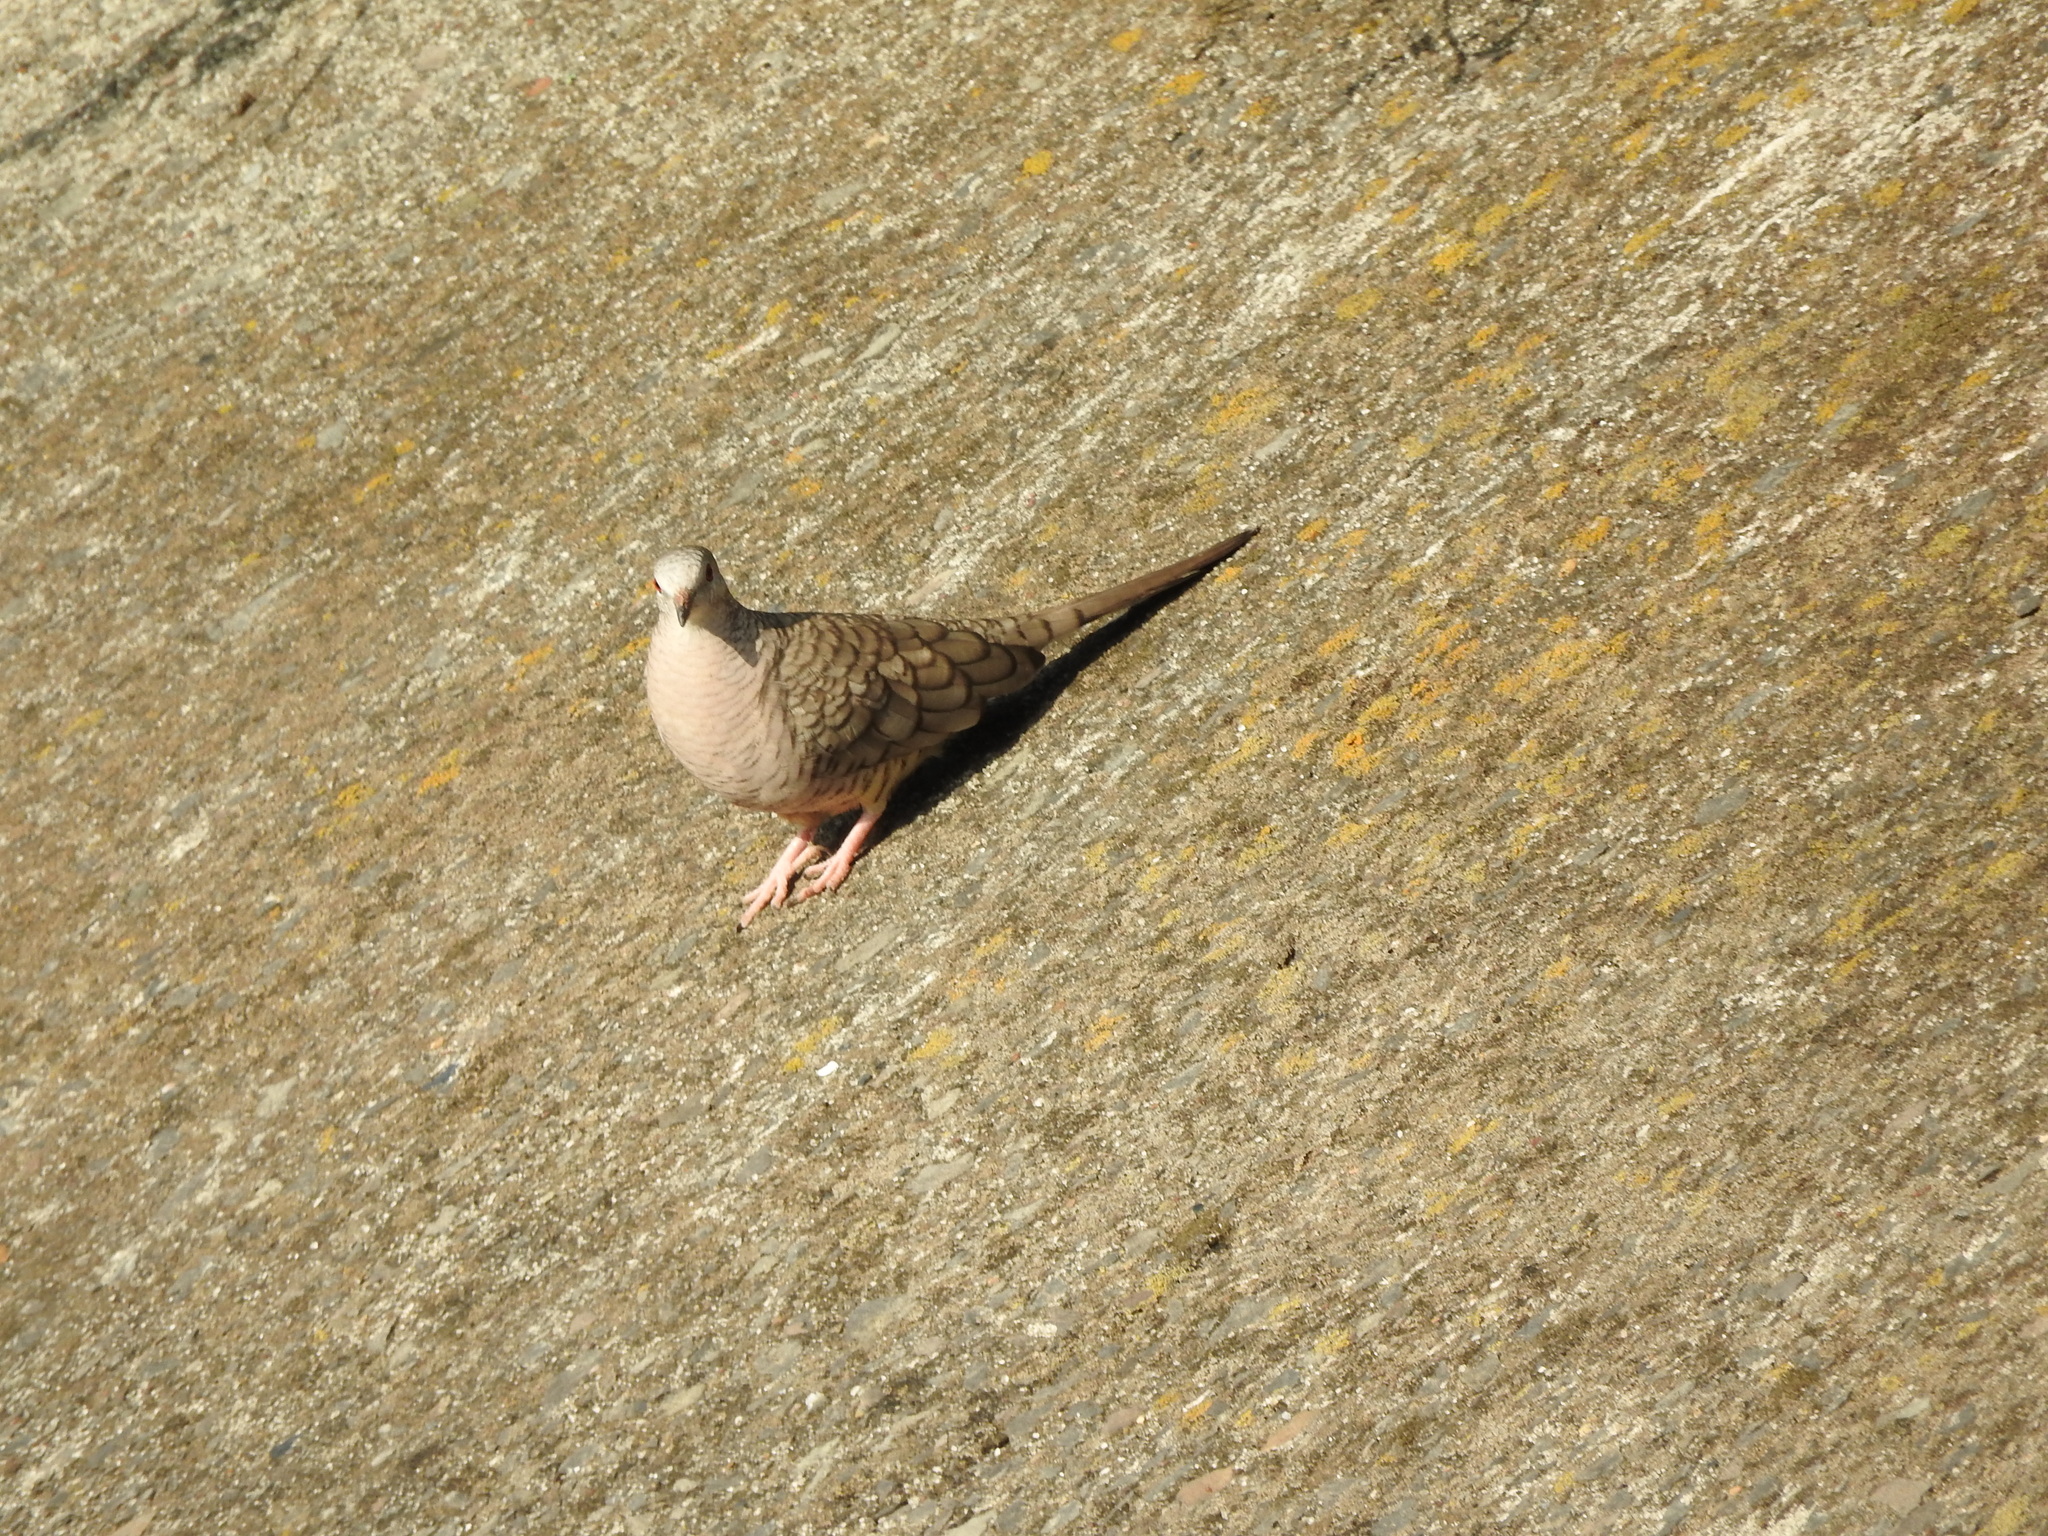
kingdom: Animalia
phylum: Chordata
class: Aves
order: Columbiformes
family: Columbidae
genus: Columbina
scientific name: Columbina inca
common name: Inca dove
